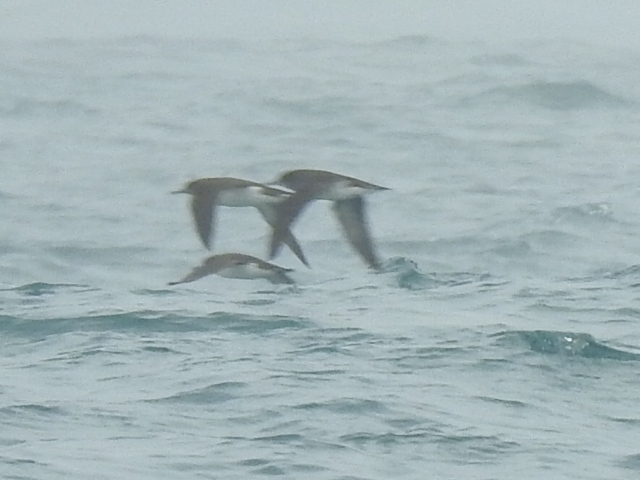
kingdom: Animalia
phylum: Chordata
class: Aves
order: Procellariiformes
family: Procellariidae
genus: Puffinus
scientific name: Puffinus huttoni
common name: Hutton's shearwater
